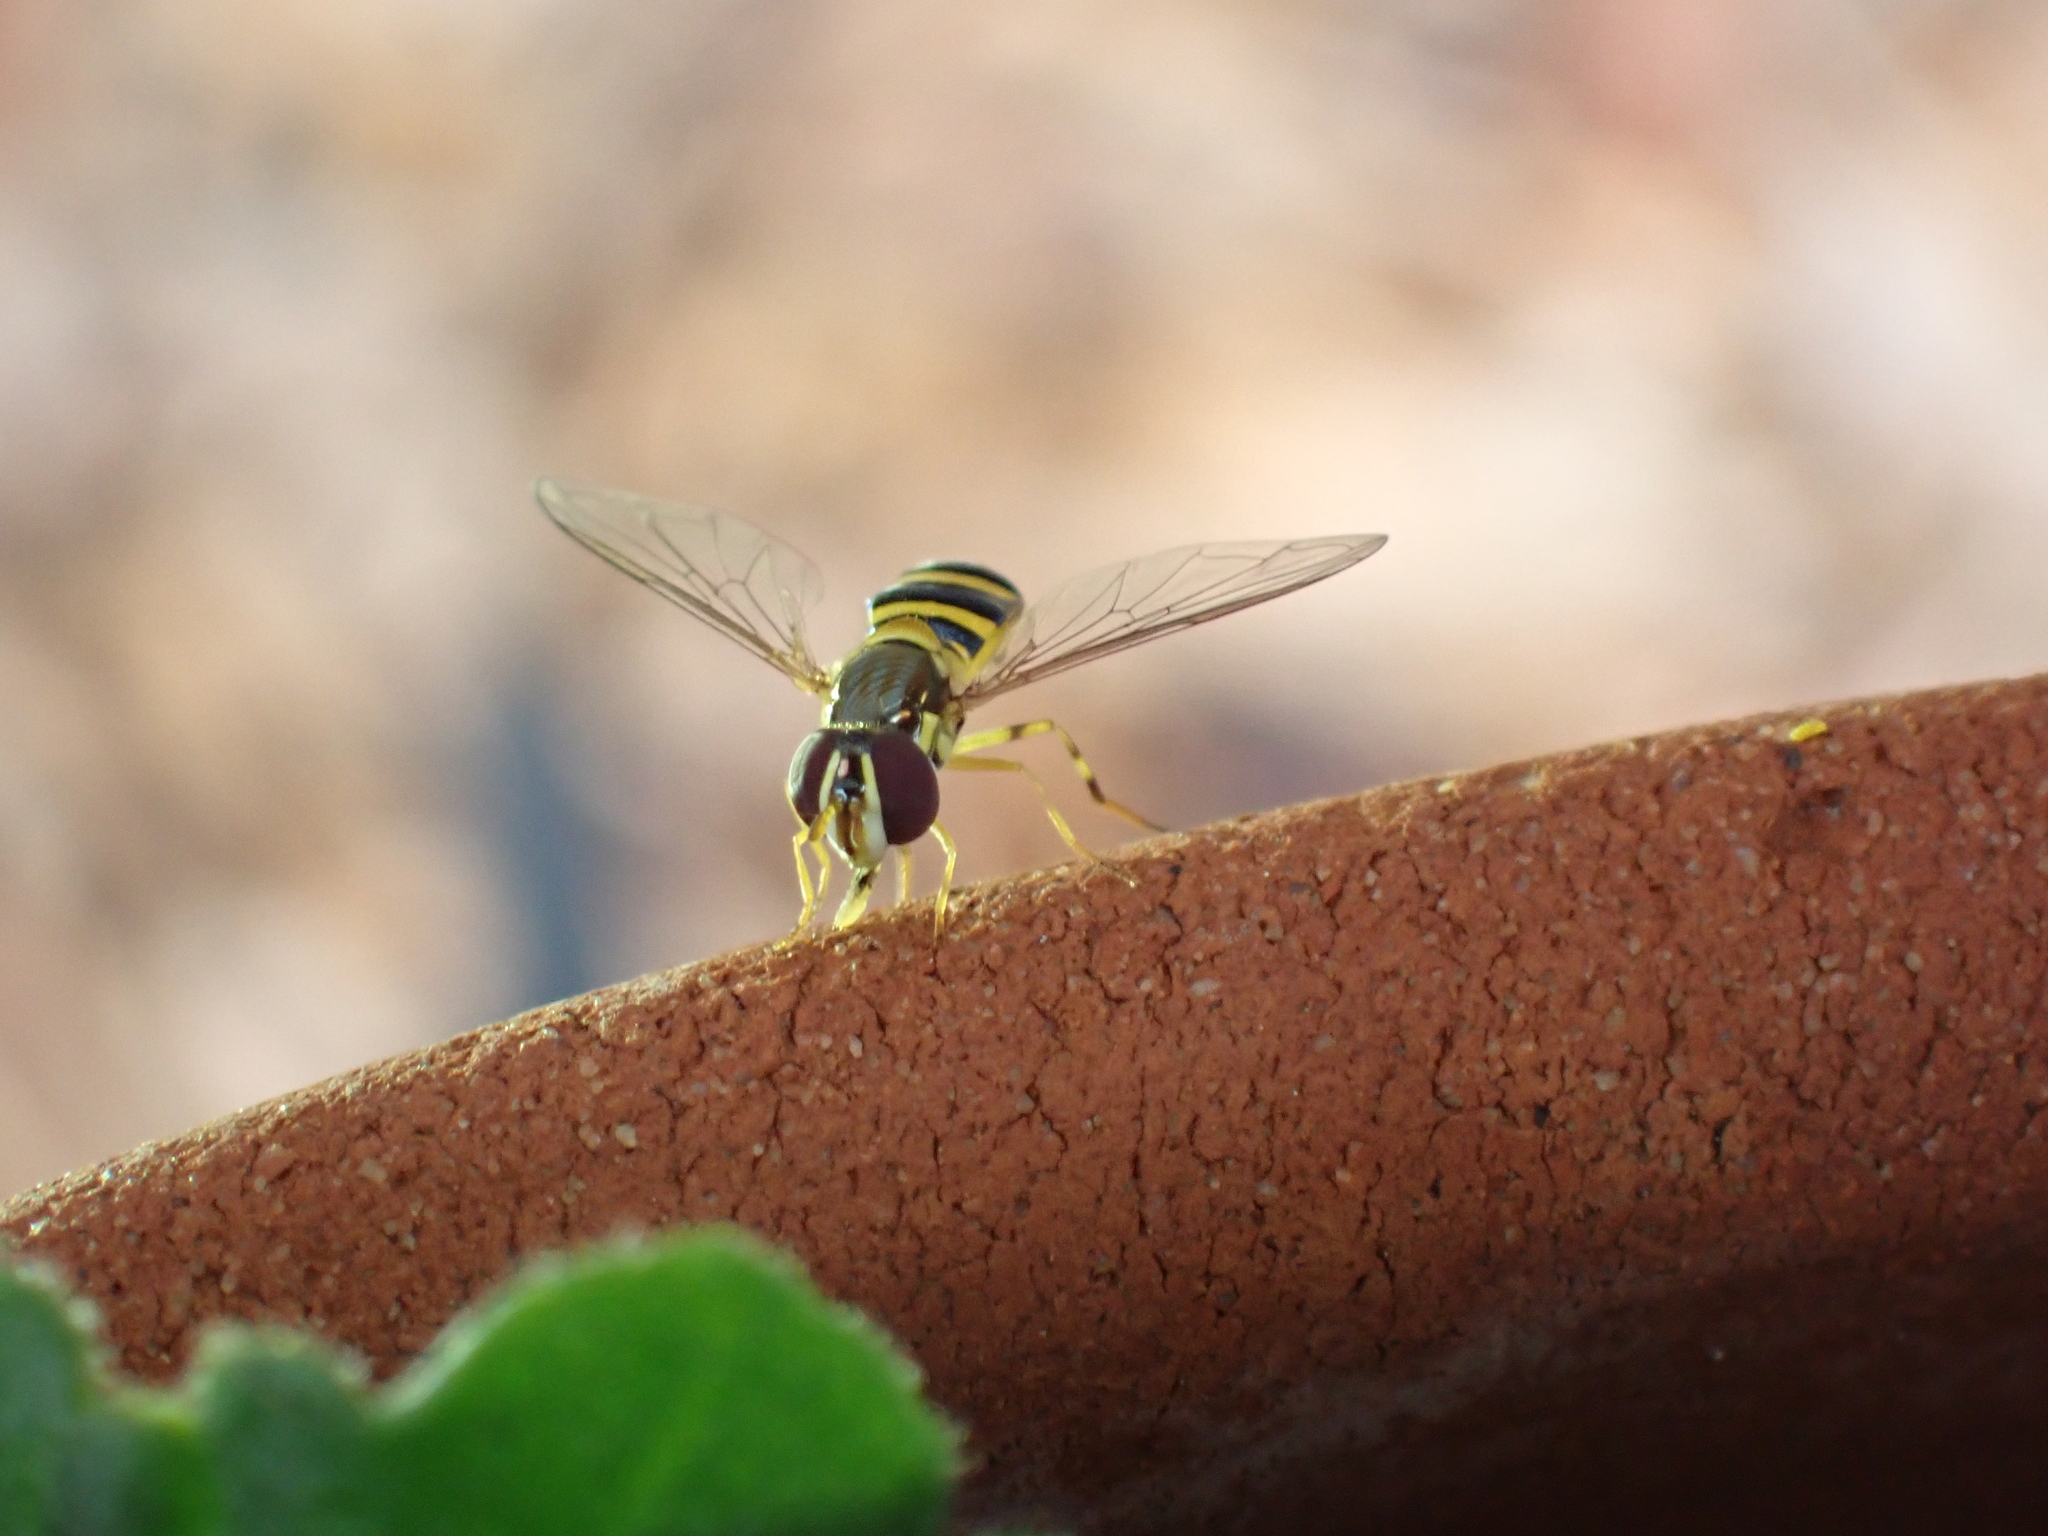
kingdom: Animalia
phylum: Arthropoda
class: Insecta
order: Diptera
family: Syrphidae
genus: Allograpta
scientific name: Allograpta obliqua
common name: Common oblique syrphid
